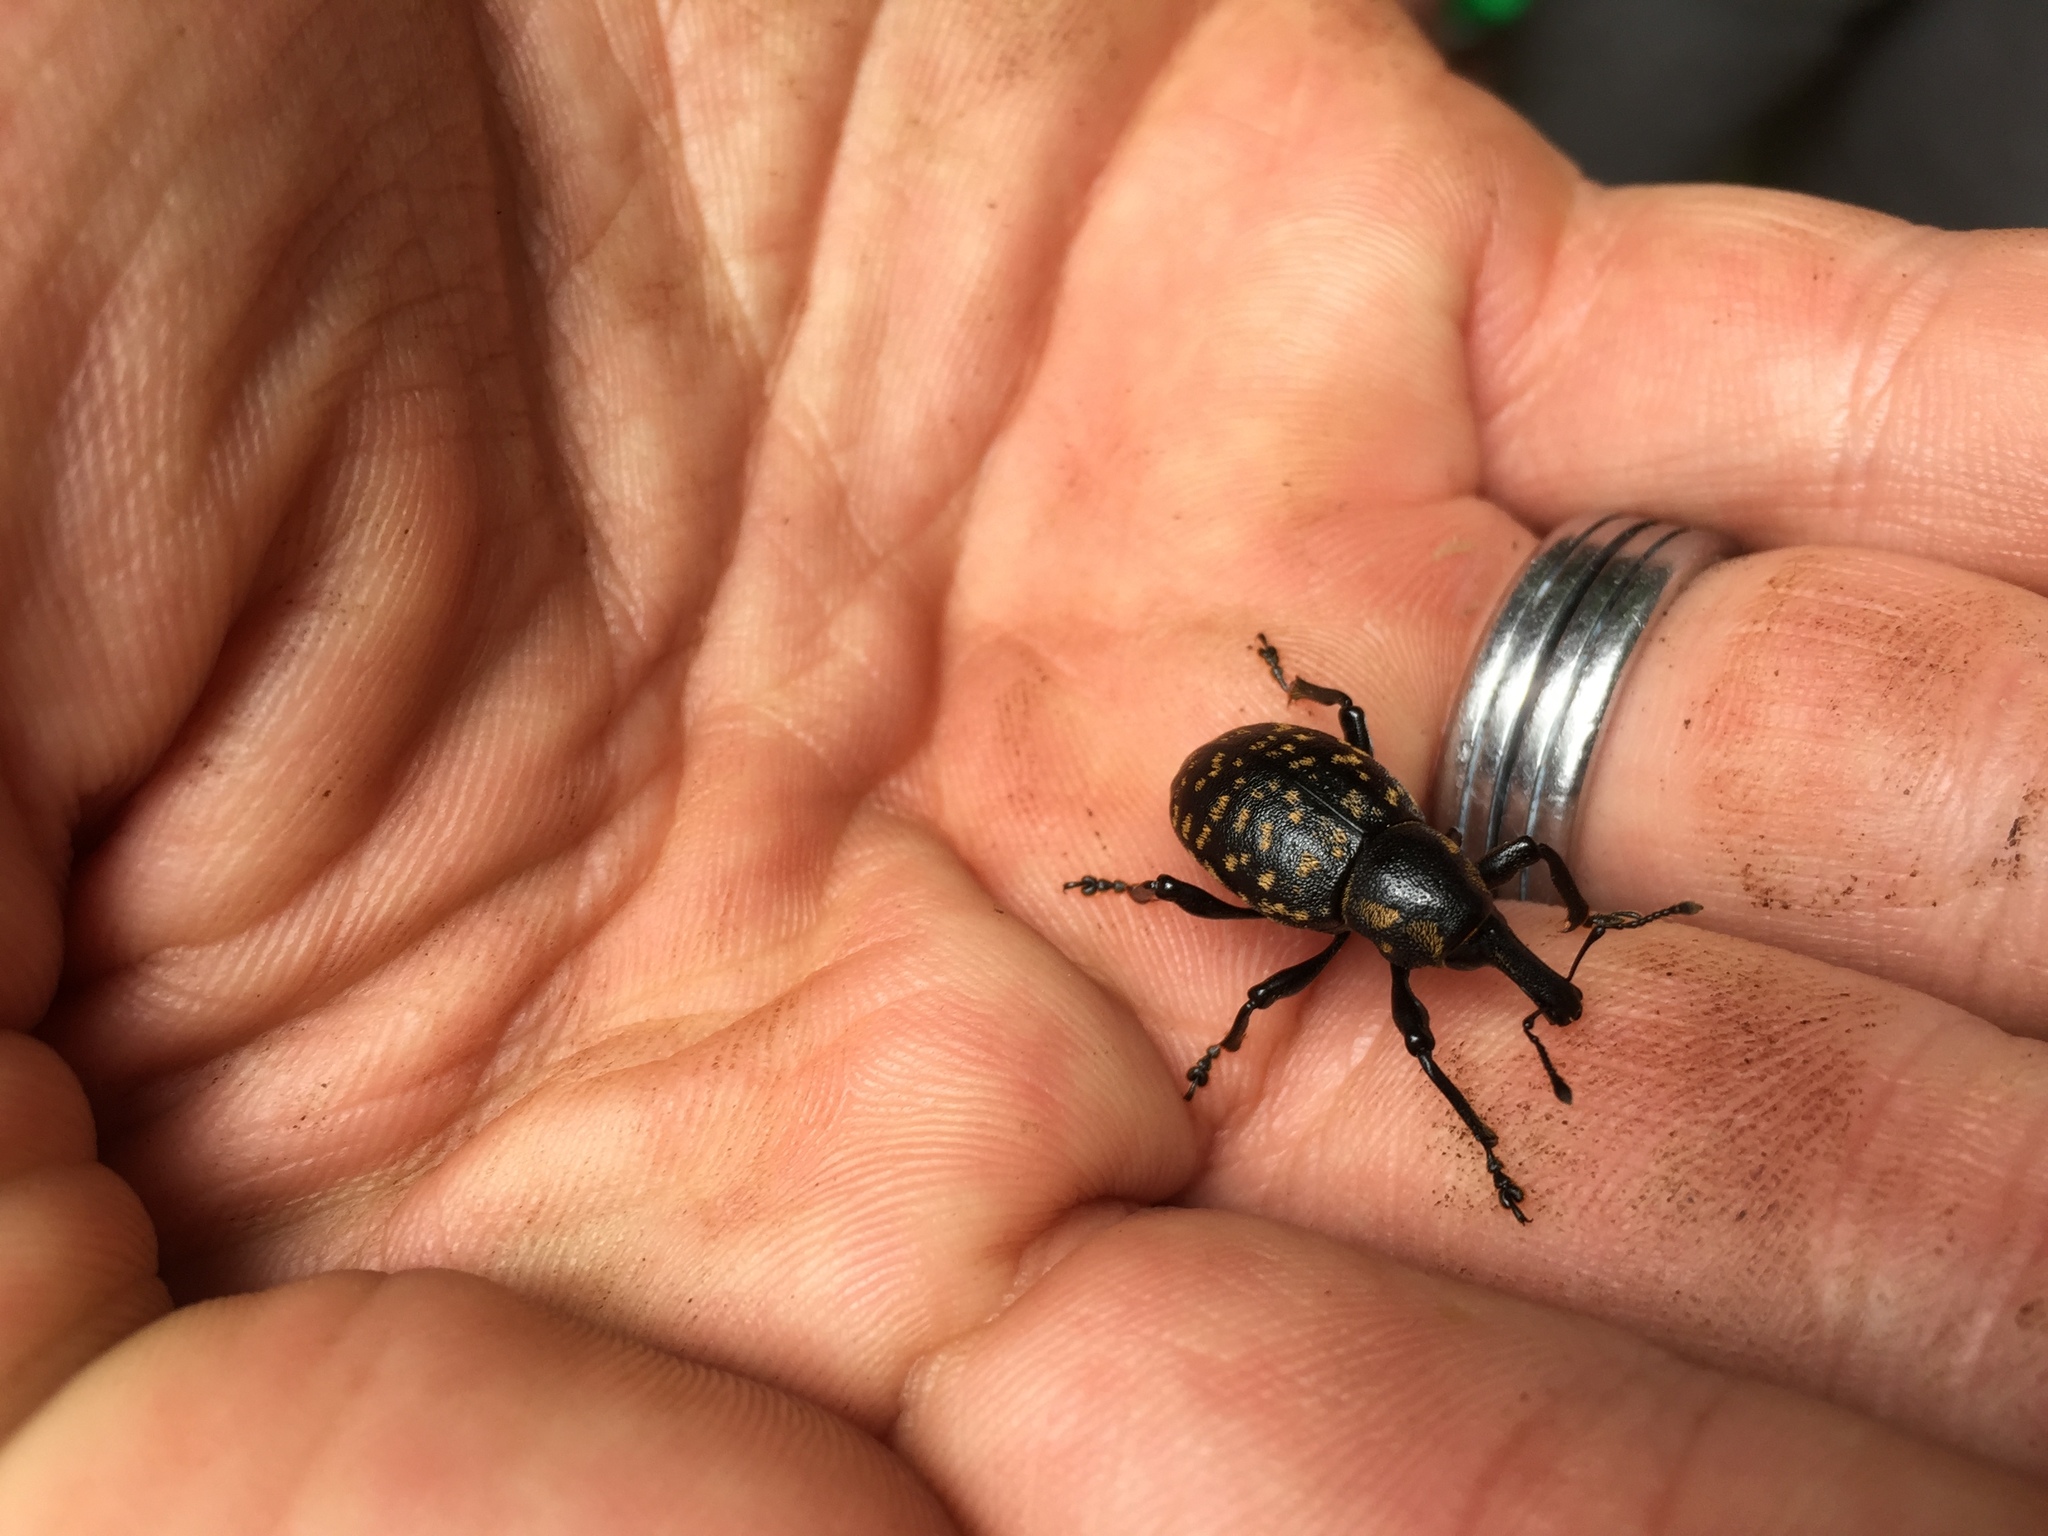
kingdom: Animalia
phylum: Arthropoda
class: Insecta
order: Coleoptera
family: Curculionidae
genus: Liparus
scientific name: Liparus glabrirostris
